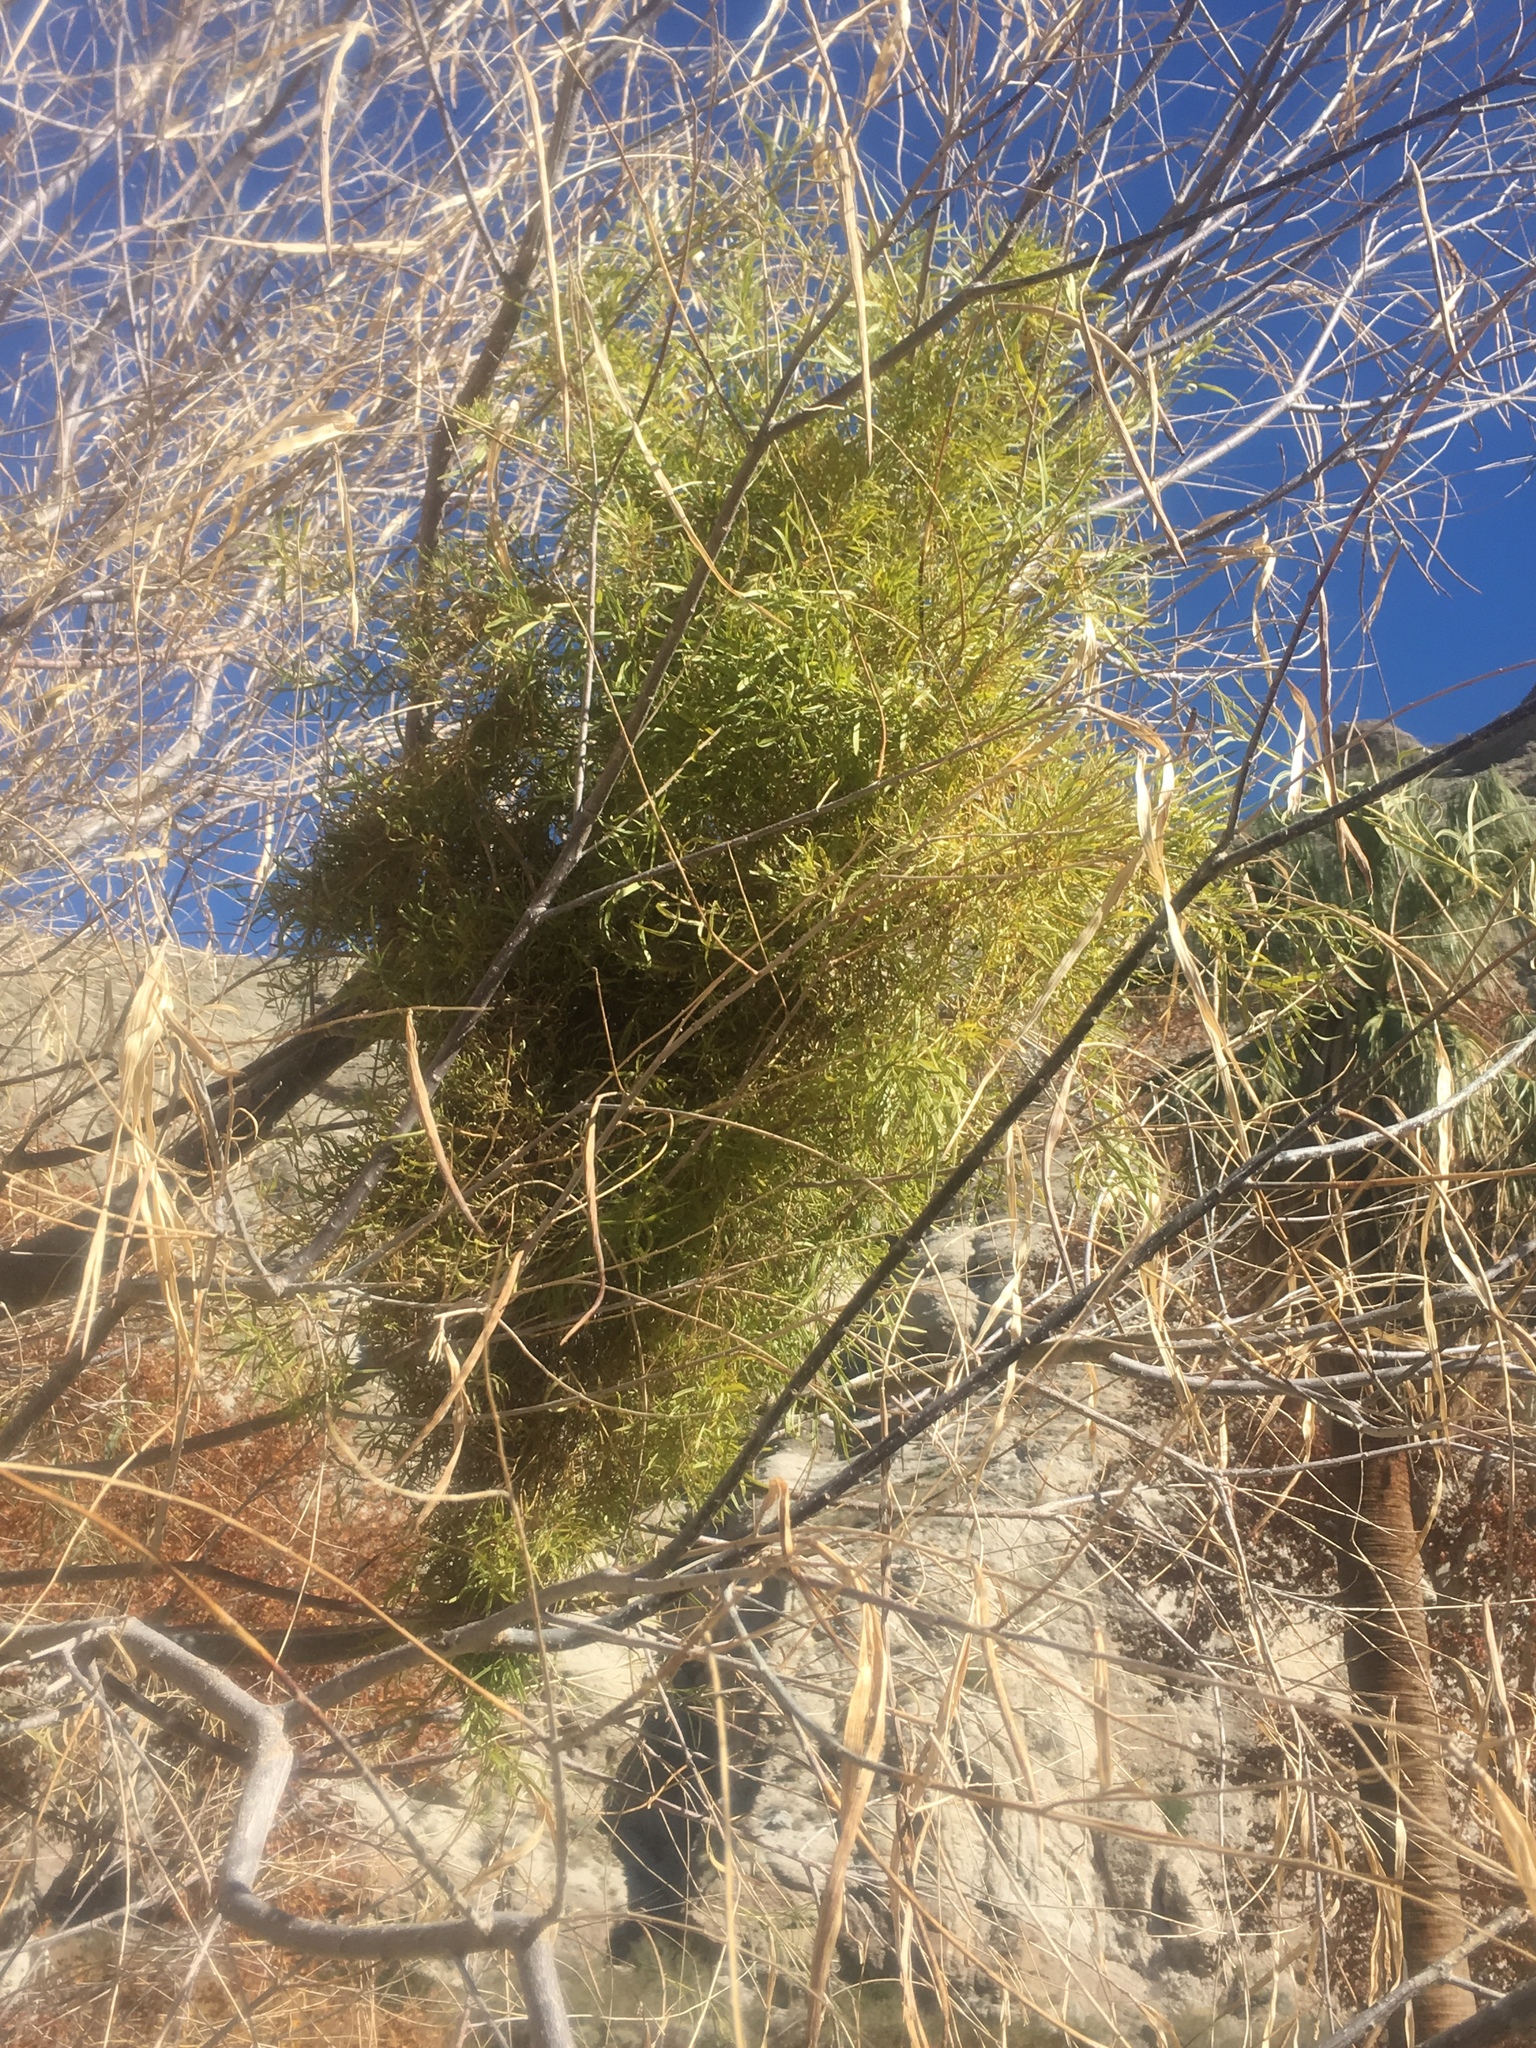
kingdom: Plantae
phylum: Tracheophyta
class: Magnoliopsida
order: Lamiales
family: Bignoniaceae
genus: Chilopsis
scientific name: Chilopsis linearis
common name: Desert-willow
